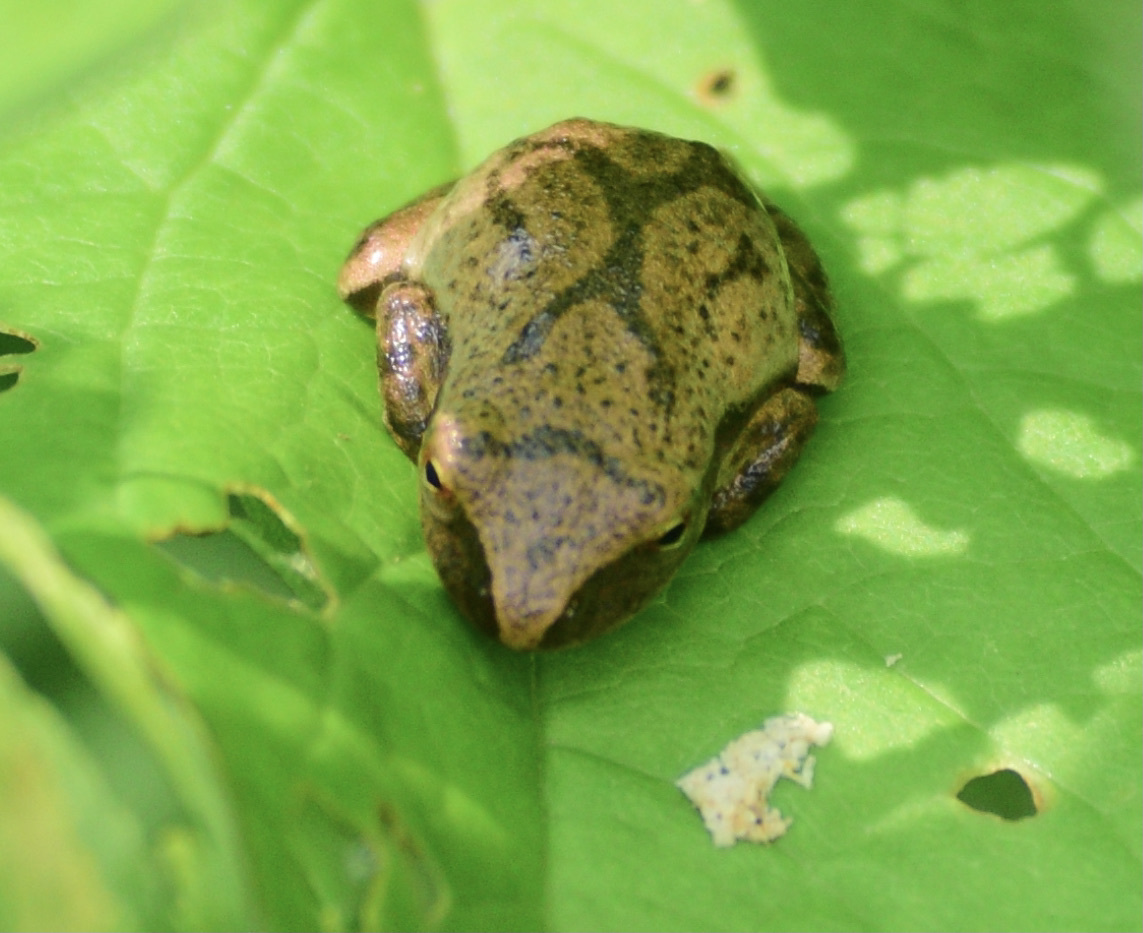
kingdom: Animalia
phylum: Chordata
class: Amphibia
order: Anura
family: Hylidae
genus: Pseudacris
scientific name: Pseudacris crucifer
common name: Spring peeper
